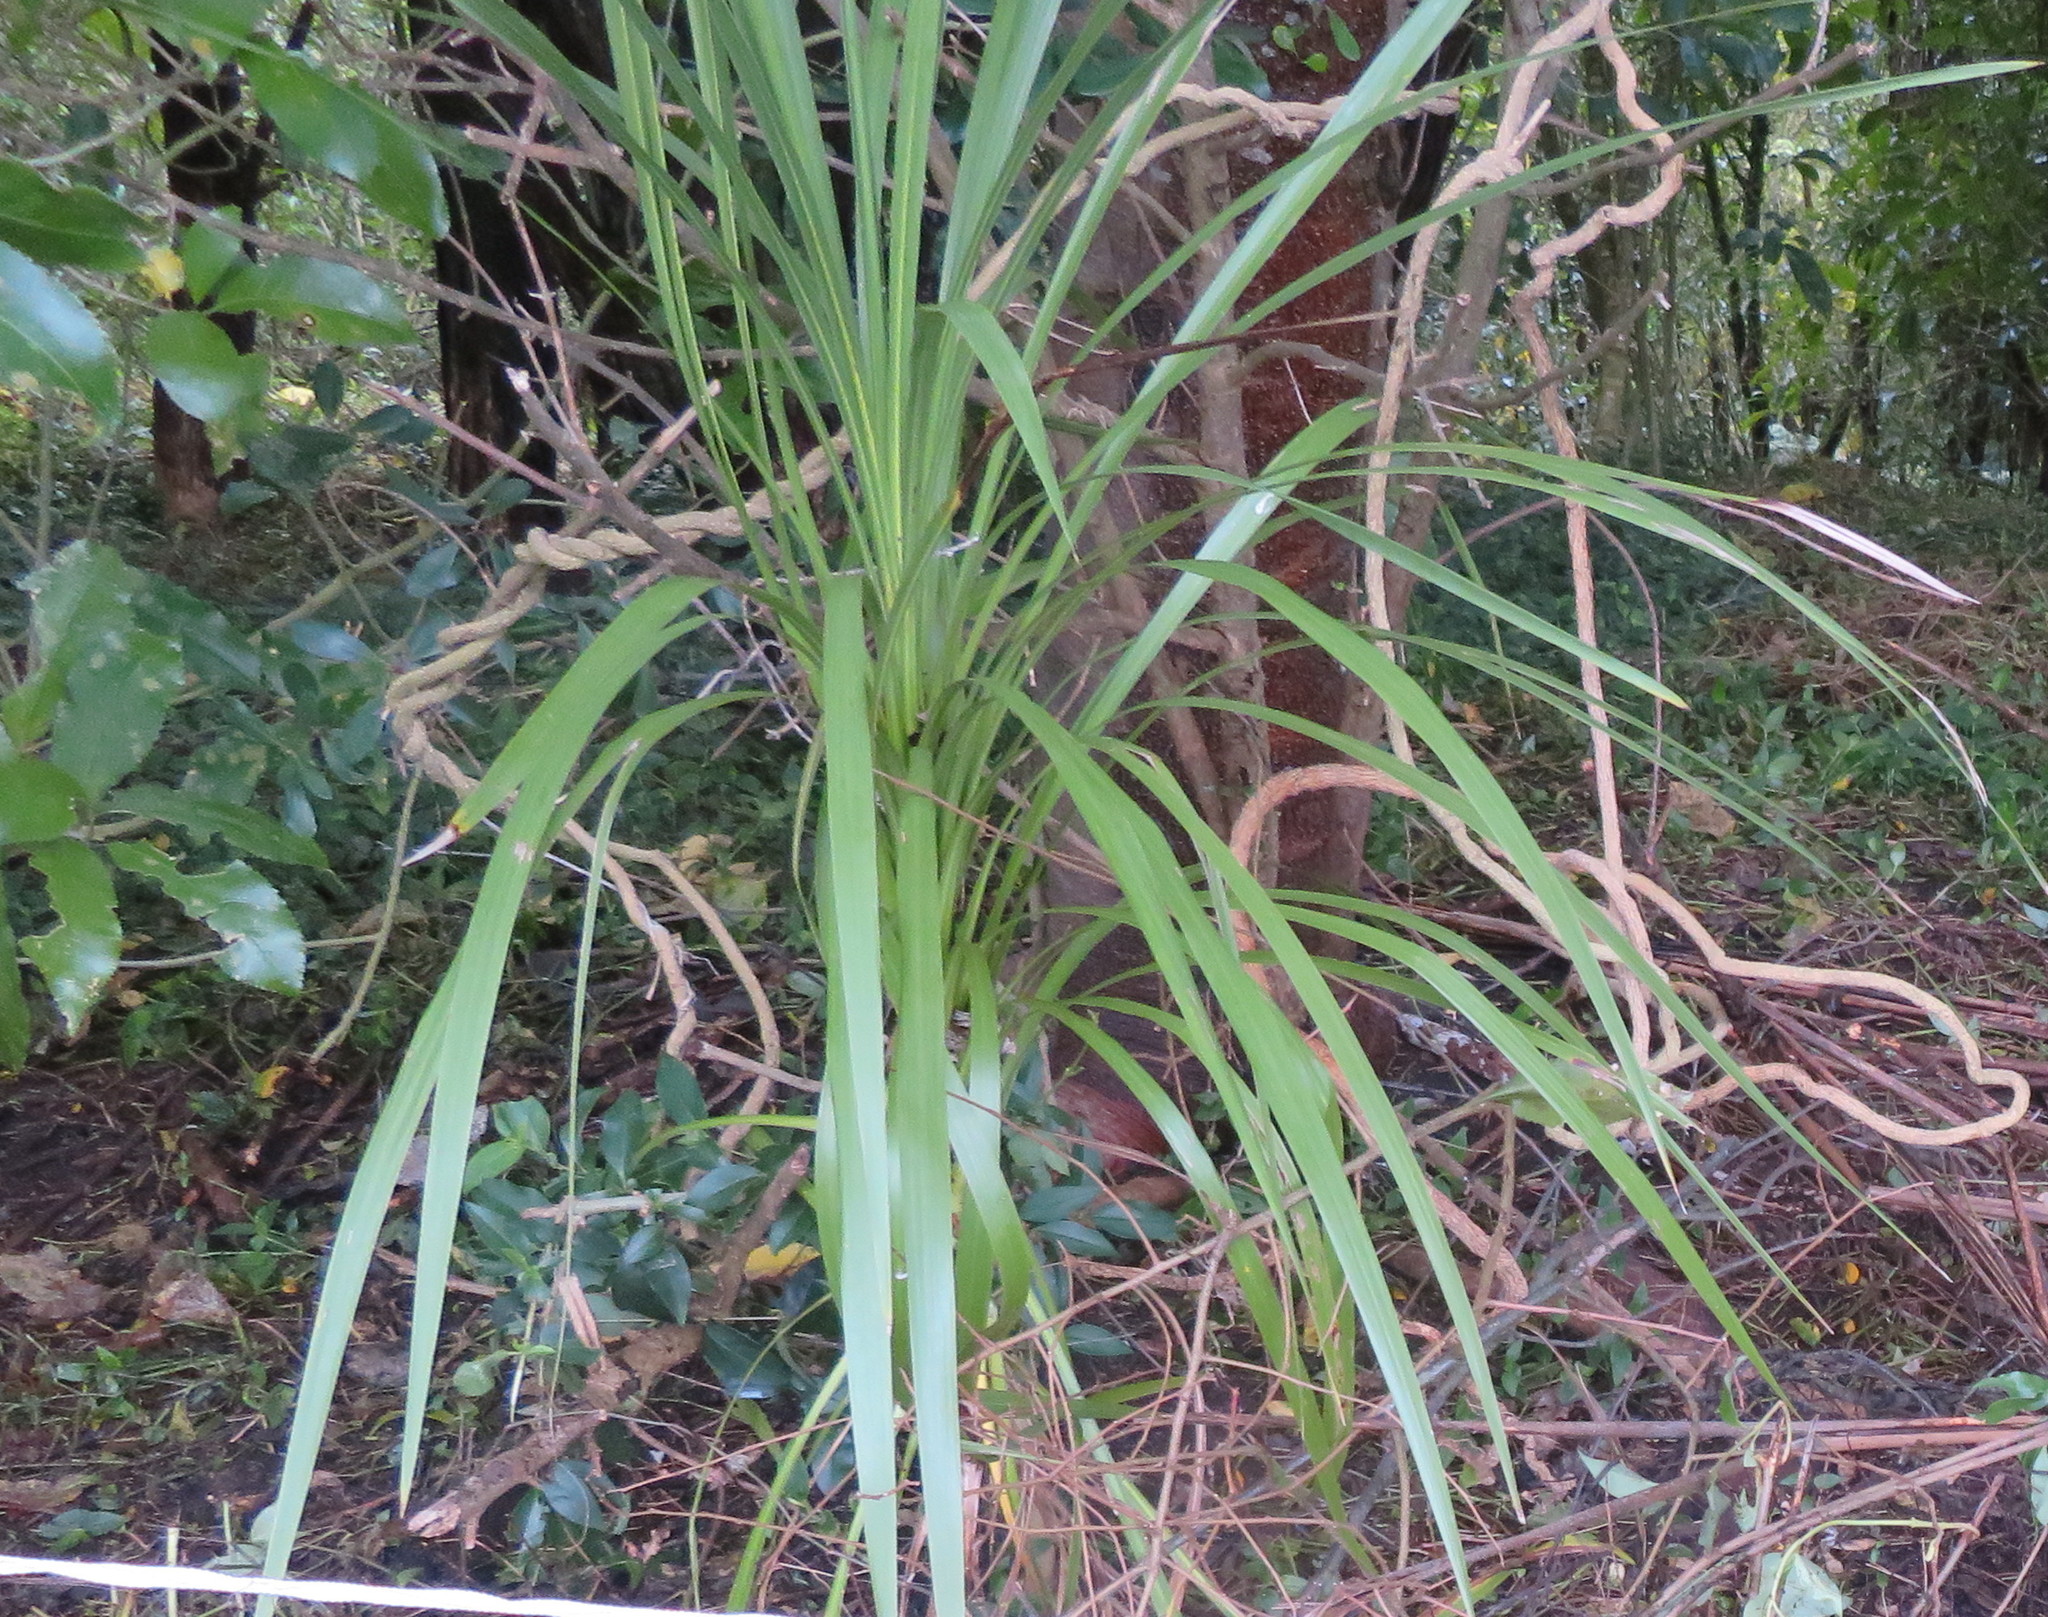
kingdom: Plantae
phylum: Tracheophyta
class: Liliopsida
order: Asparagales
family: Asparagaceae
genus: Cordyline
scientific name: Cordyline australis
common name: Cabbage-palm
